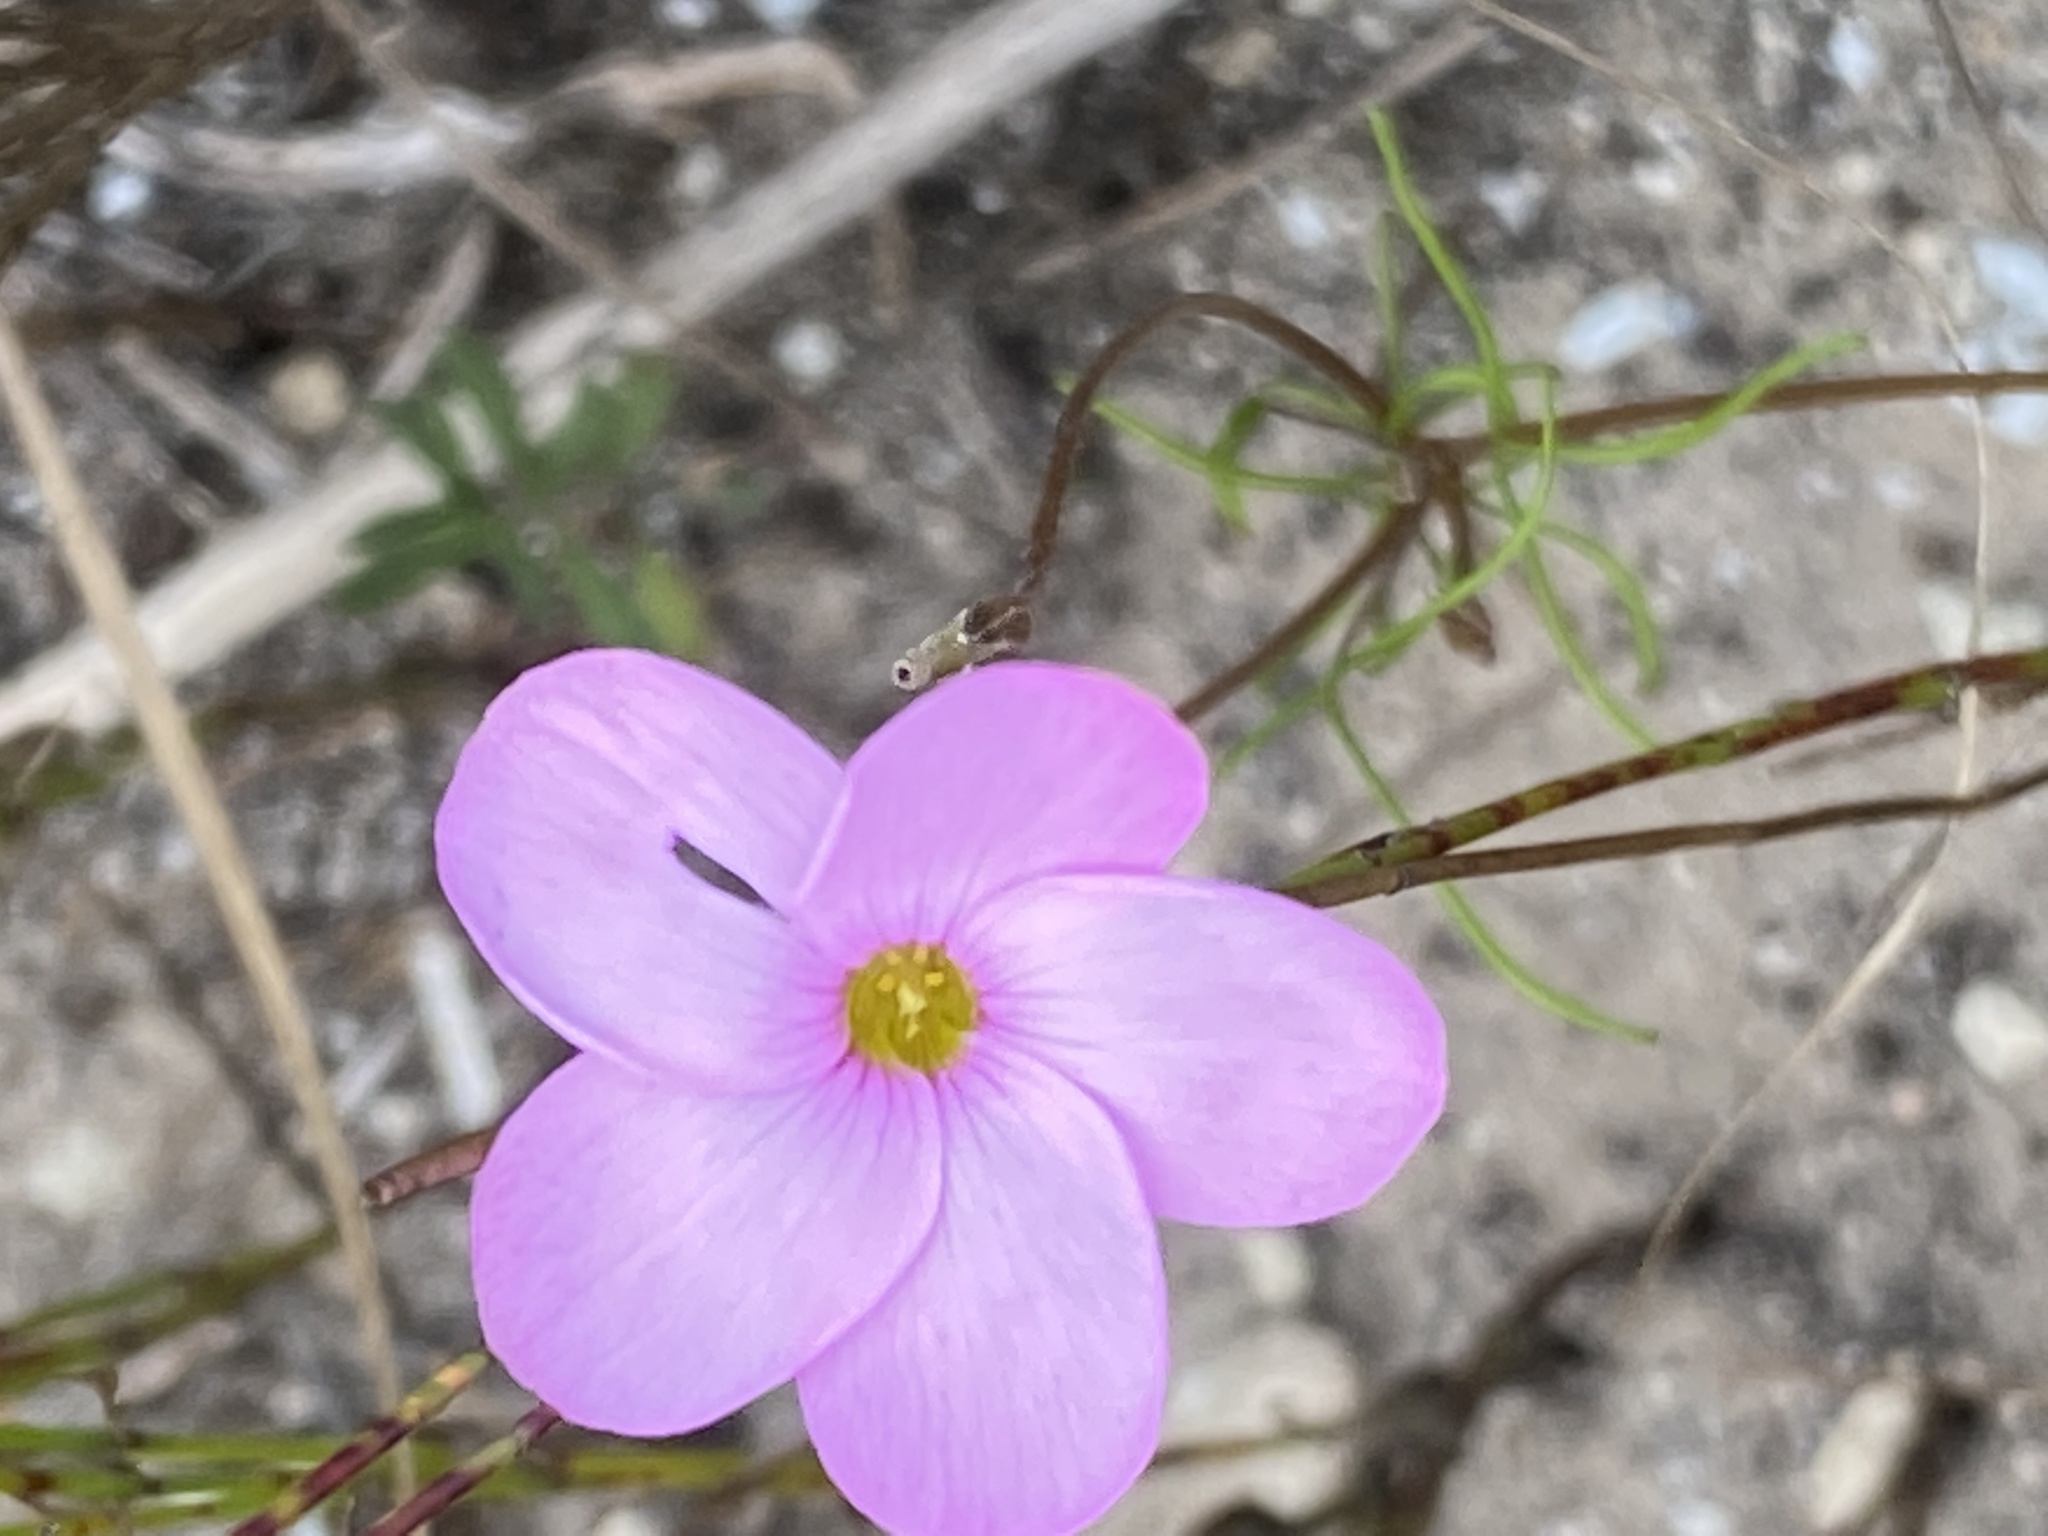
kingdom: Plantae
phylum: Tracheophyta
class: Magnoliopsida
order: Oxalidales
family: Oxalidaceae
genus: Oxalis
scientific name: Oxalis polyphylla
